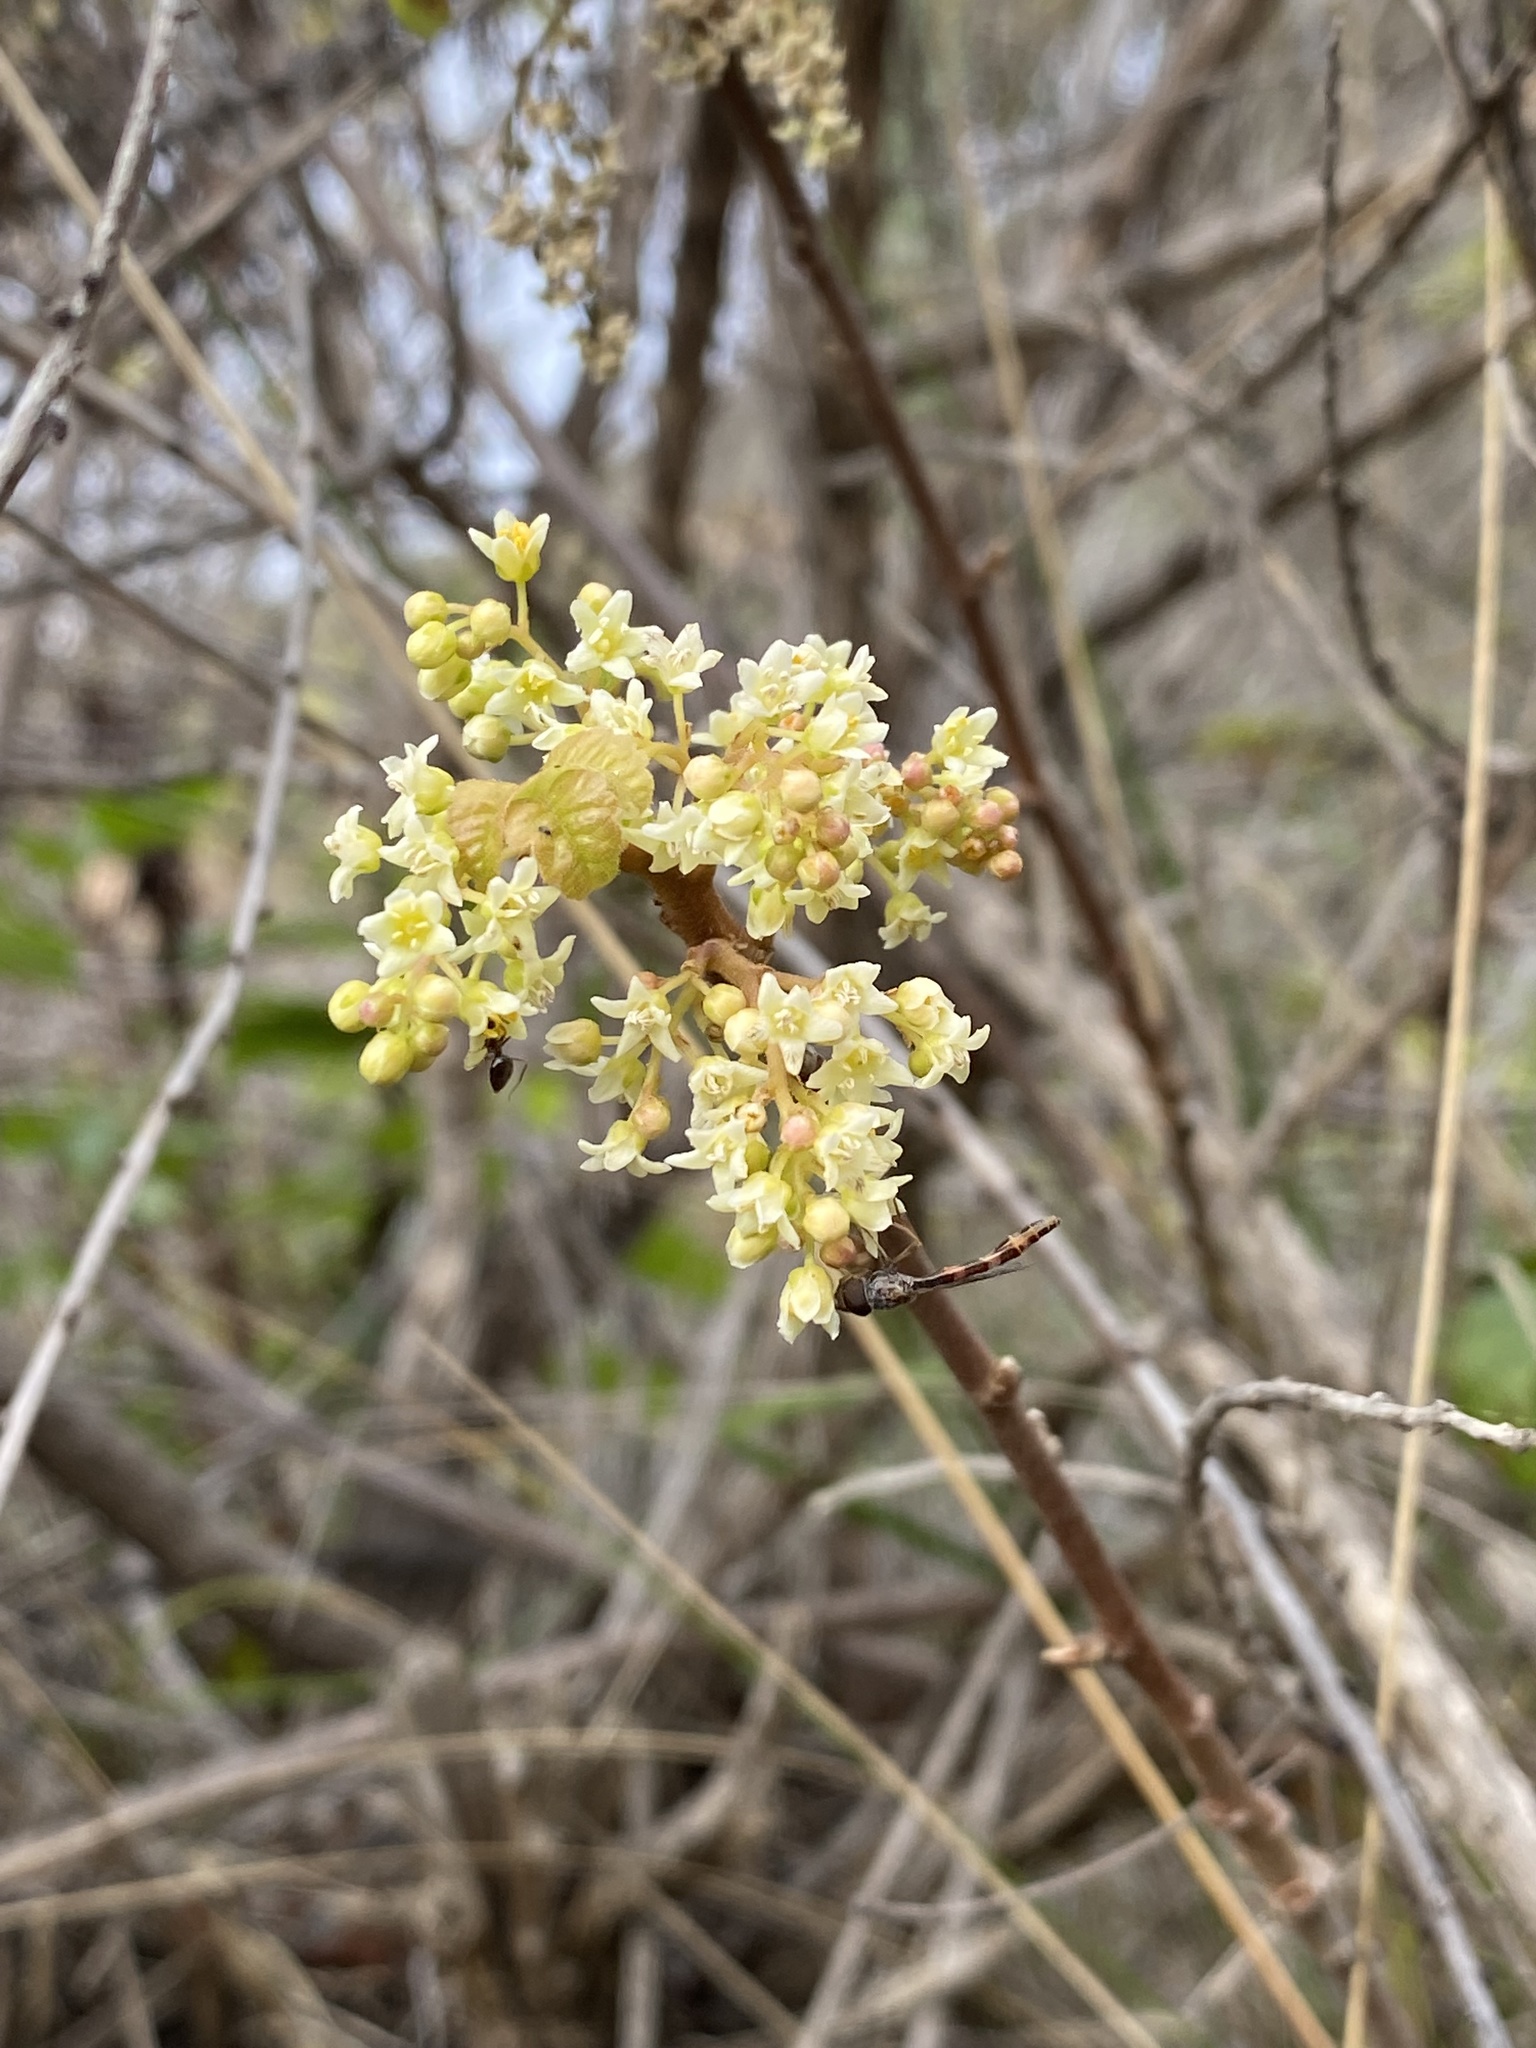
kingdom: Animalia
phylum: Arthropoda
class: Insecta
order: Diptera
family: Syrphidae
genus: Hypocritanus
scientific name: Hypocritanus lemur
